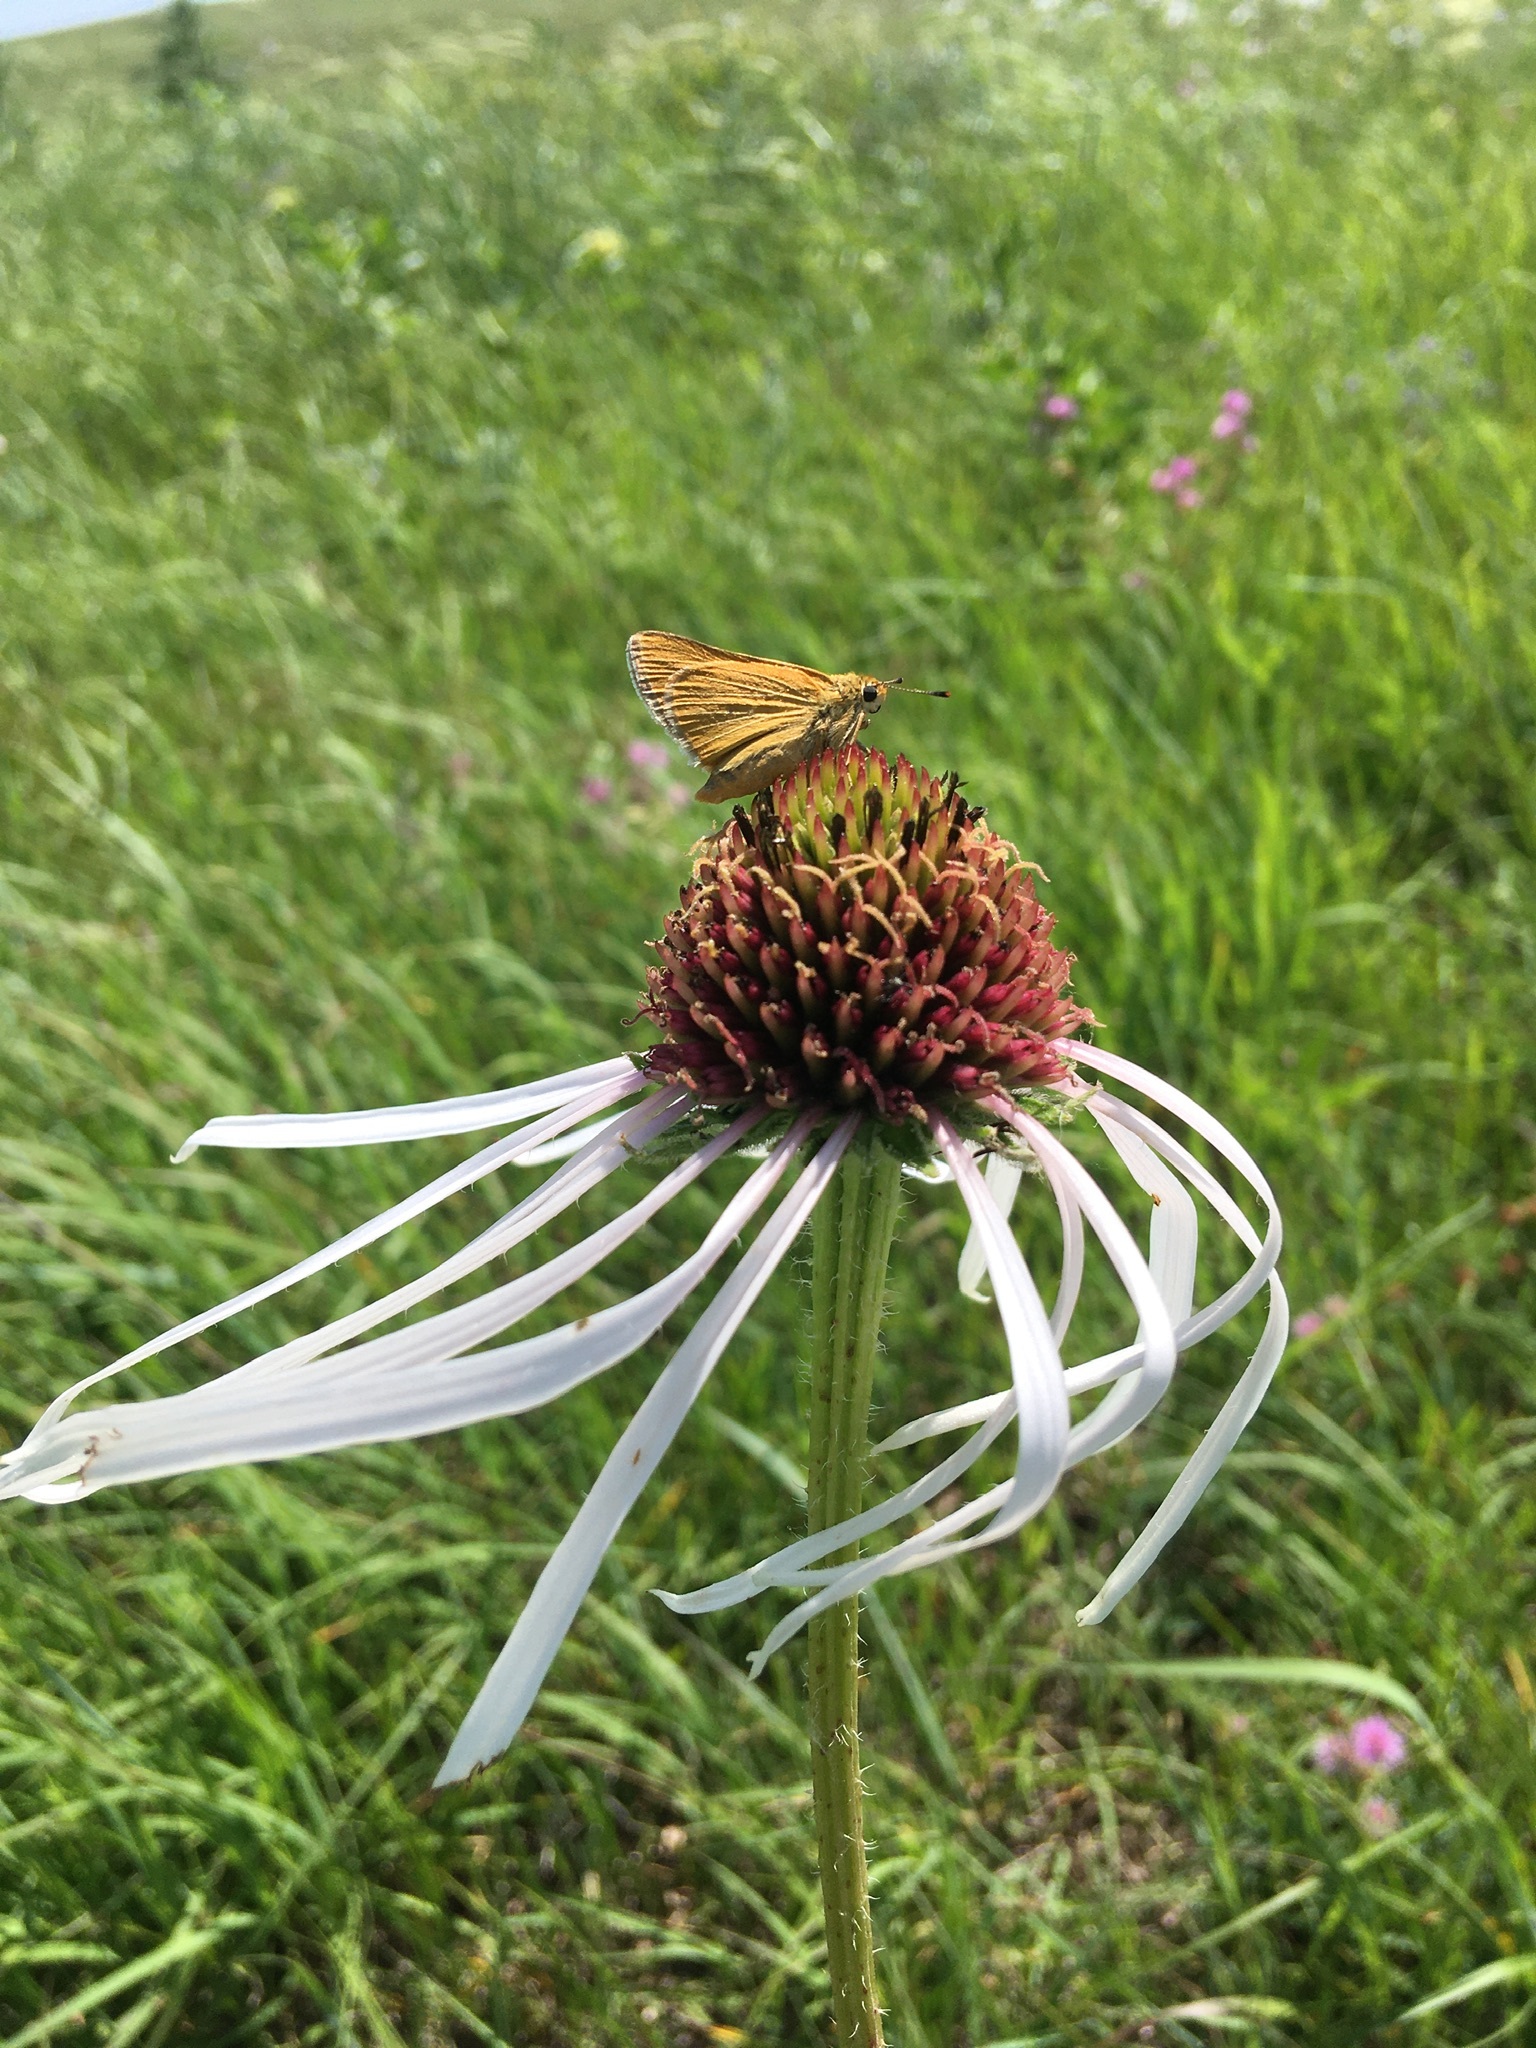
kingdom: Animalia
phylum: Arthropoda
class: Insecta
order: Lepidoptera
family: Hesperiidae
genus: Atrytone
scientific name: Atrytone arogos
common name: Arogos skipper
